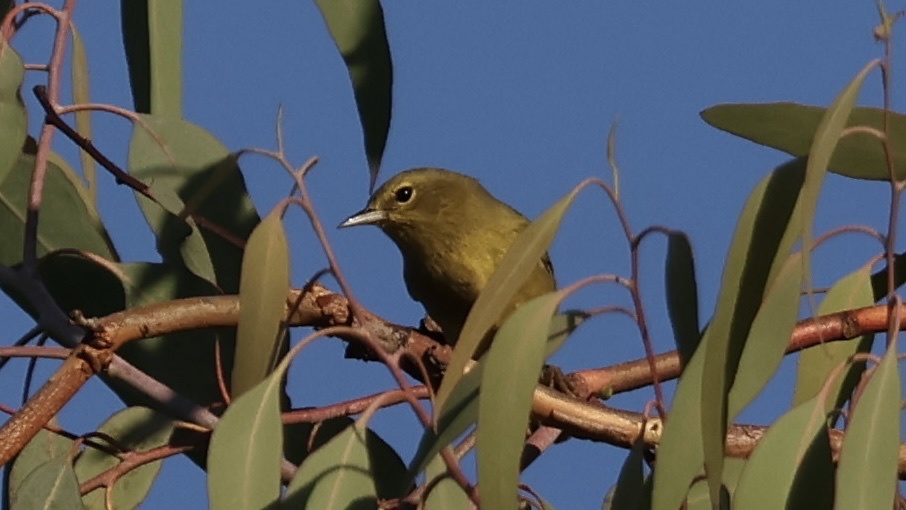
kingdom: Animalia
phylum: Chordata
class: Aves
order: Passeriformes
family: Parulidae
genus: Leiothlypis
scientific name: Leiothlypis celata
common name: Orange-crowned warbler
